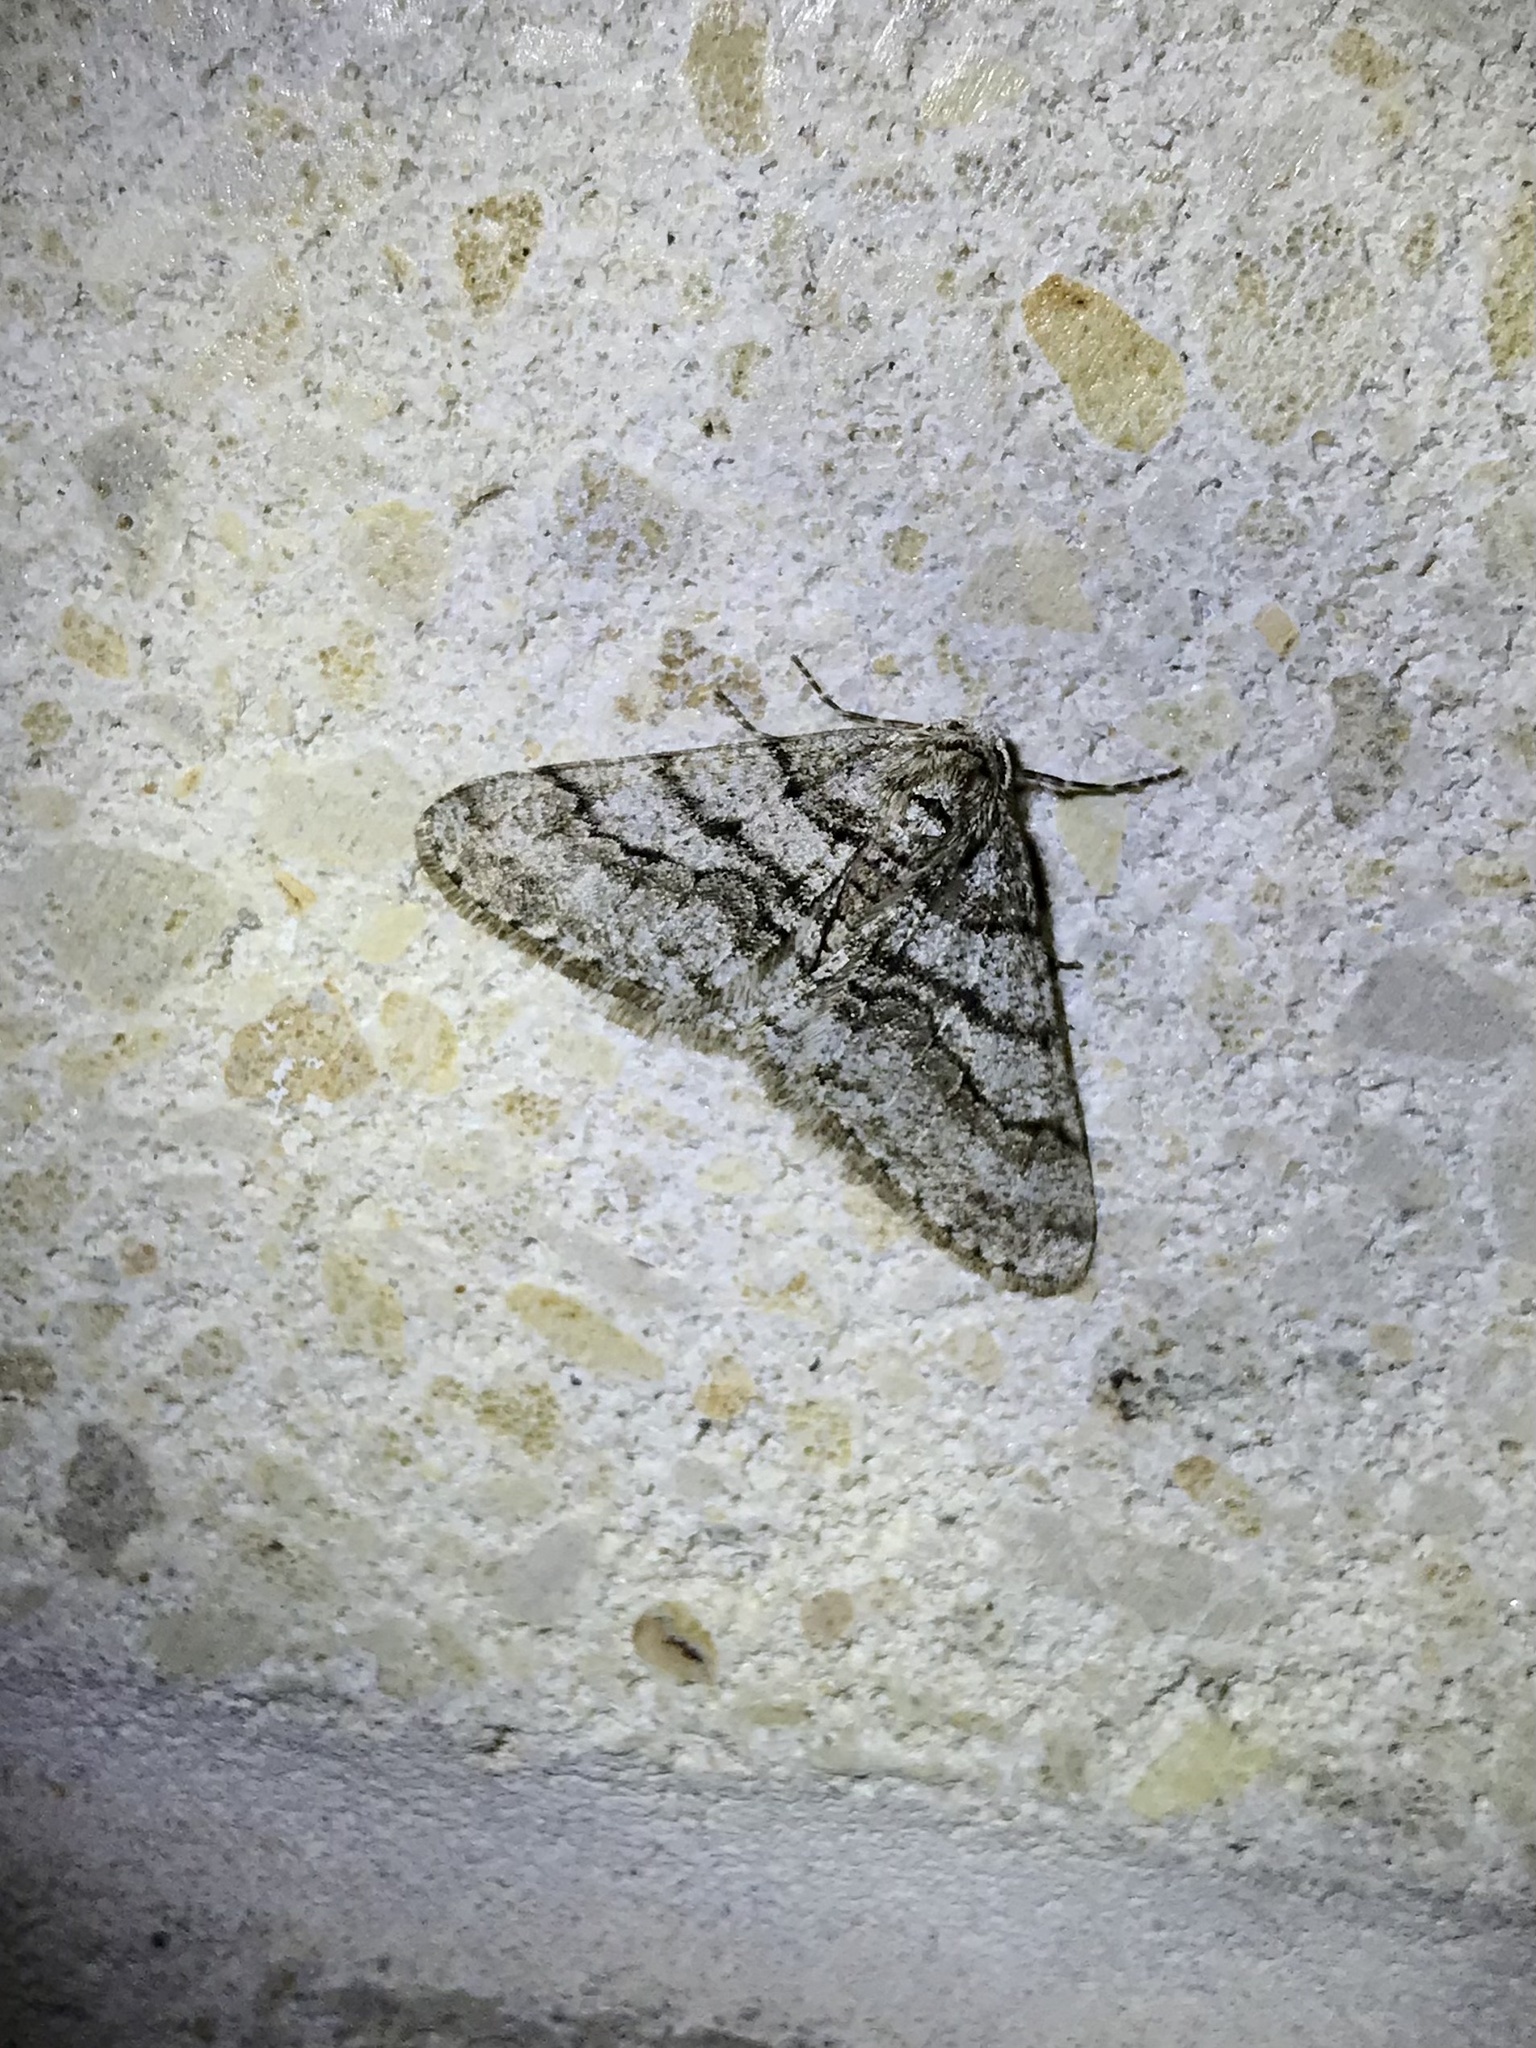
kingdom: Animalia
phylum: Arthropoda
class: Insecta
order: Lepidoptera
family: Geometridae
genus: Phigalia
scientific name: Phigalia titea
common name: Spiny looper
